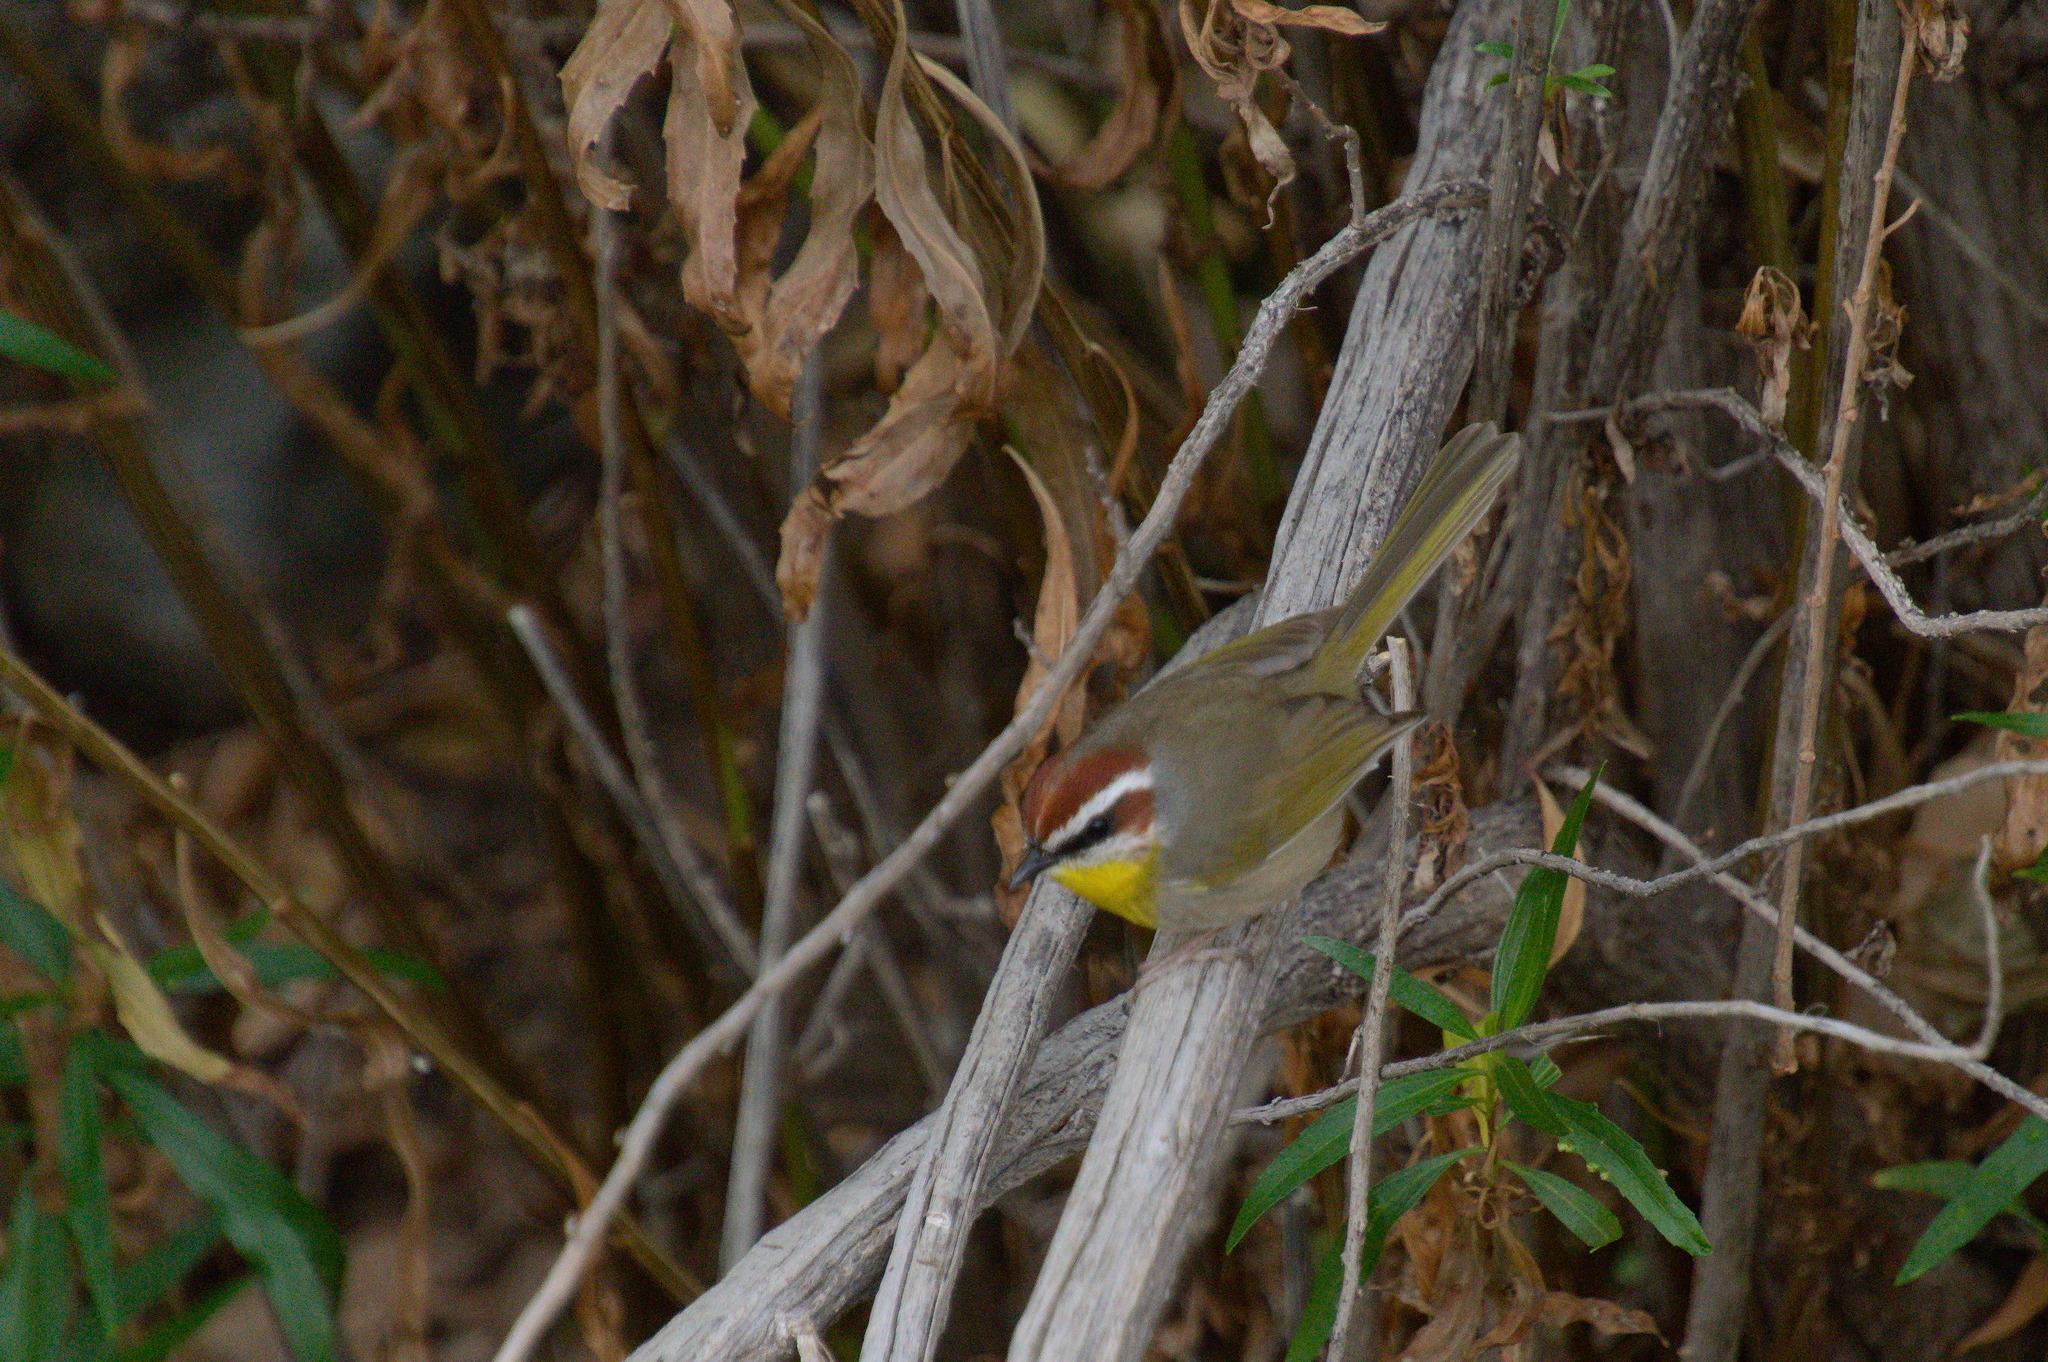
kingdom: Animalia
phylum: Chordata
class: Aves
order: Passeriformes
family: Parulidae
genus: Basileuterus
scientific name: Basileuterus rufifrons
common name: Rufous-capped warbler
